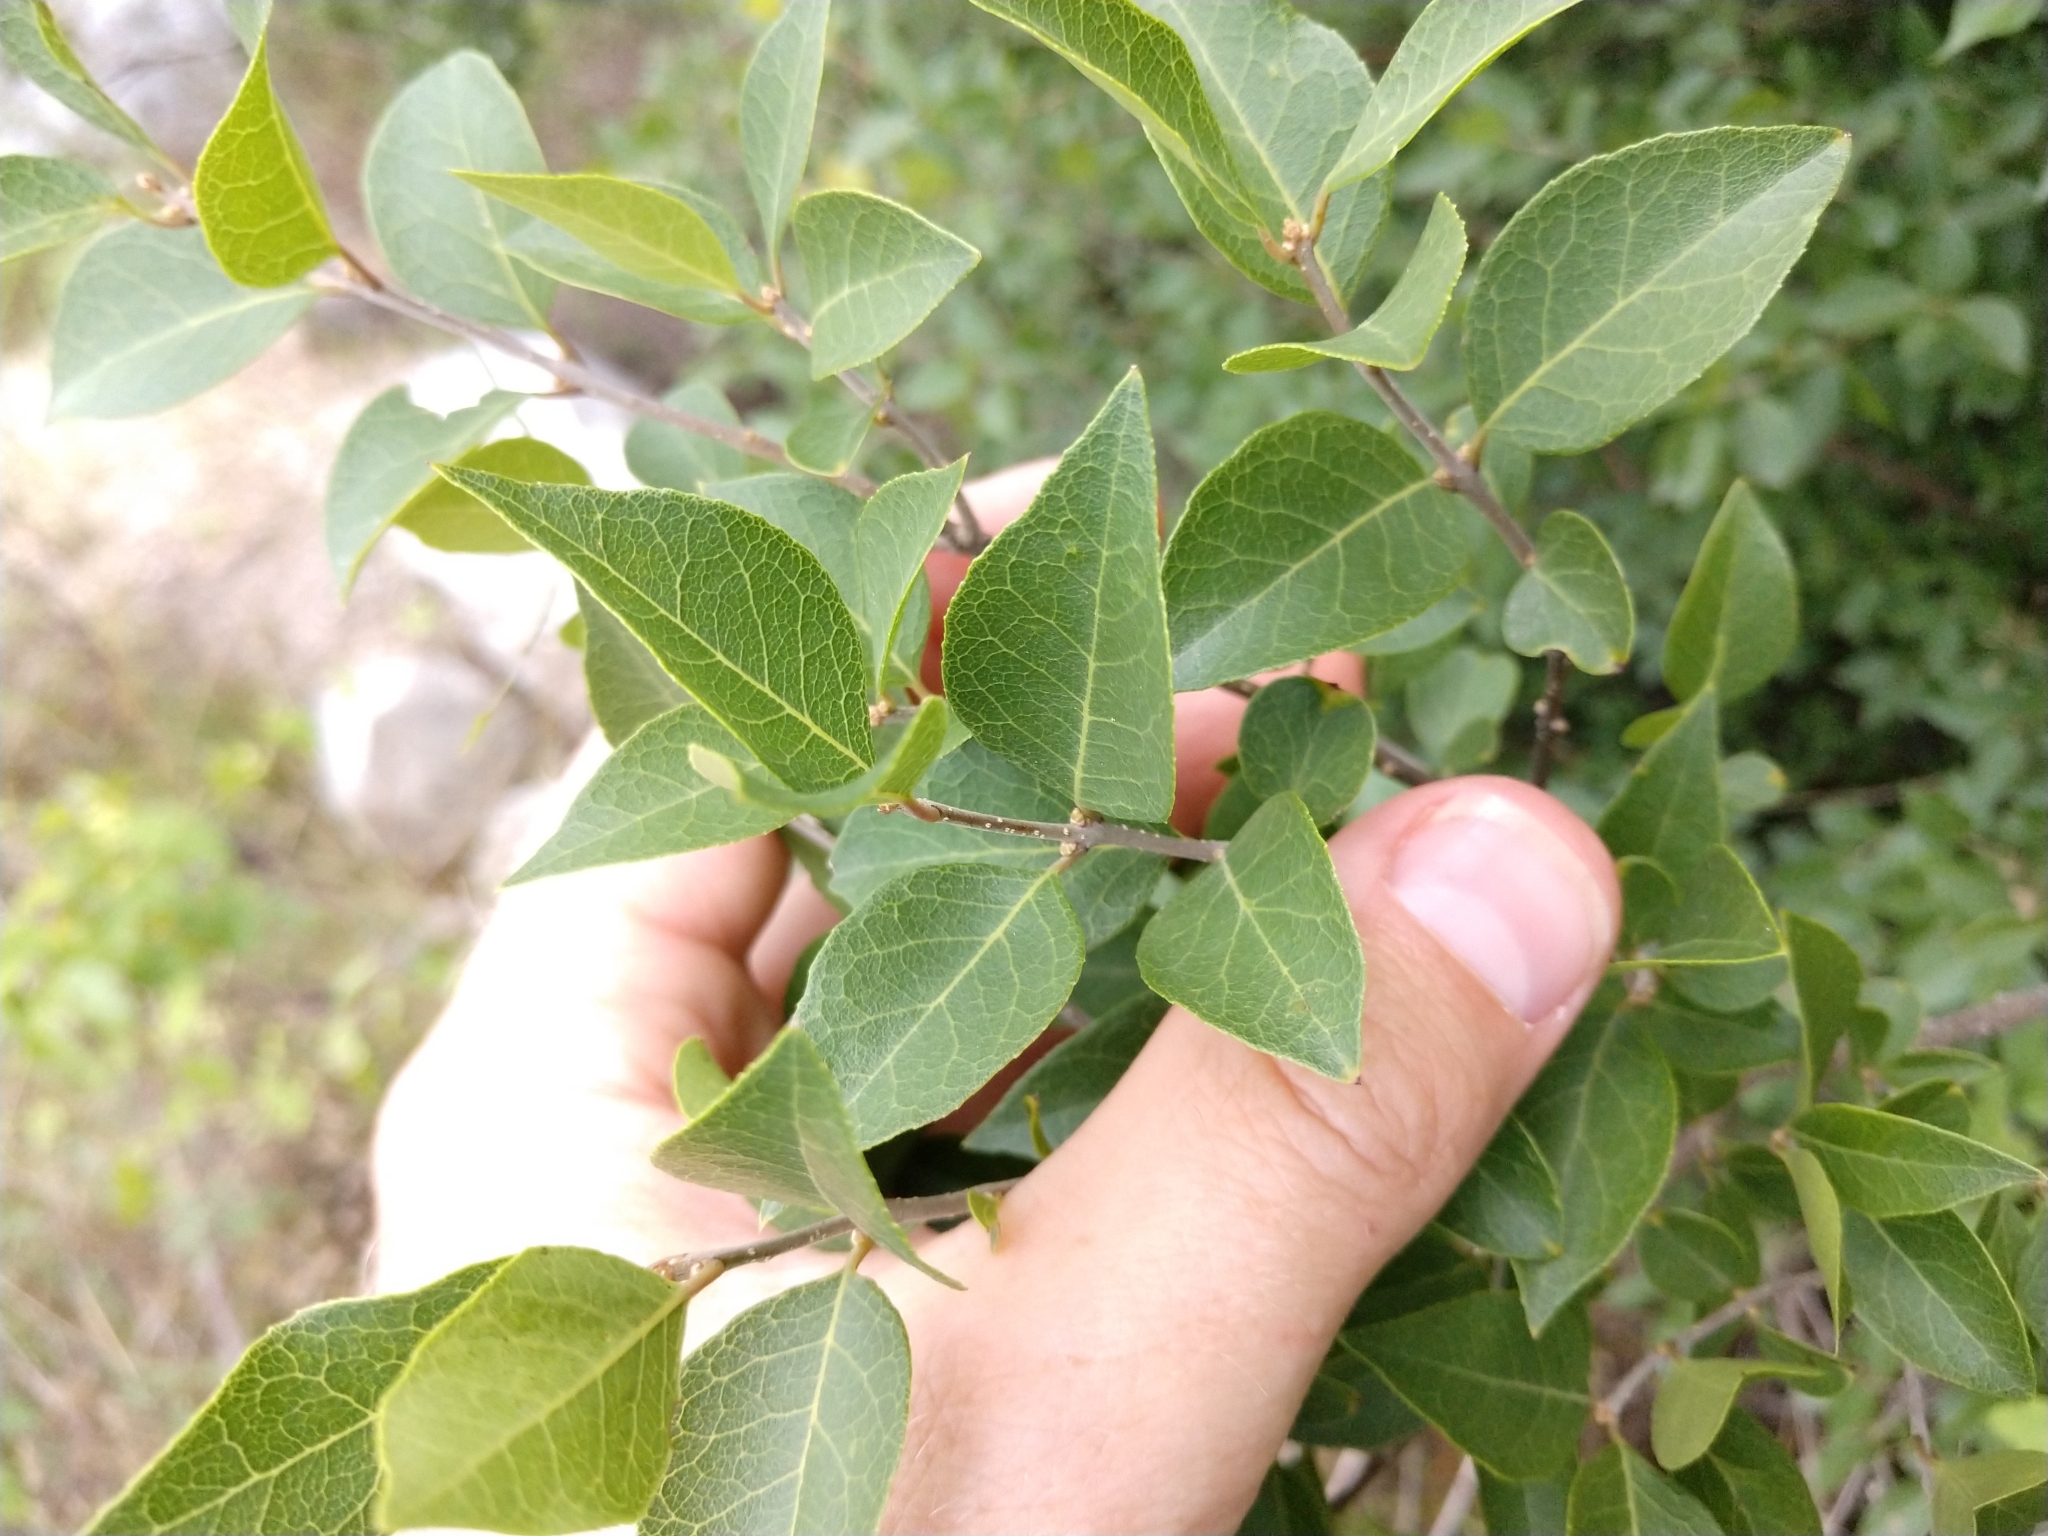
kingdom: Plantae
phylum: Tracheophyta
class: Magnoliopsida
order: Lamiales
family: Oleaceae
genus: Forestiera
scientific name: Forestiera reticulata
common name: Netleaf swamp-privet
